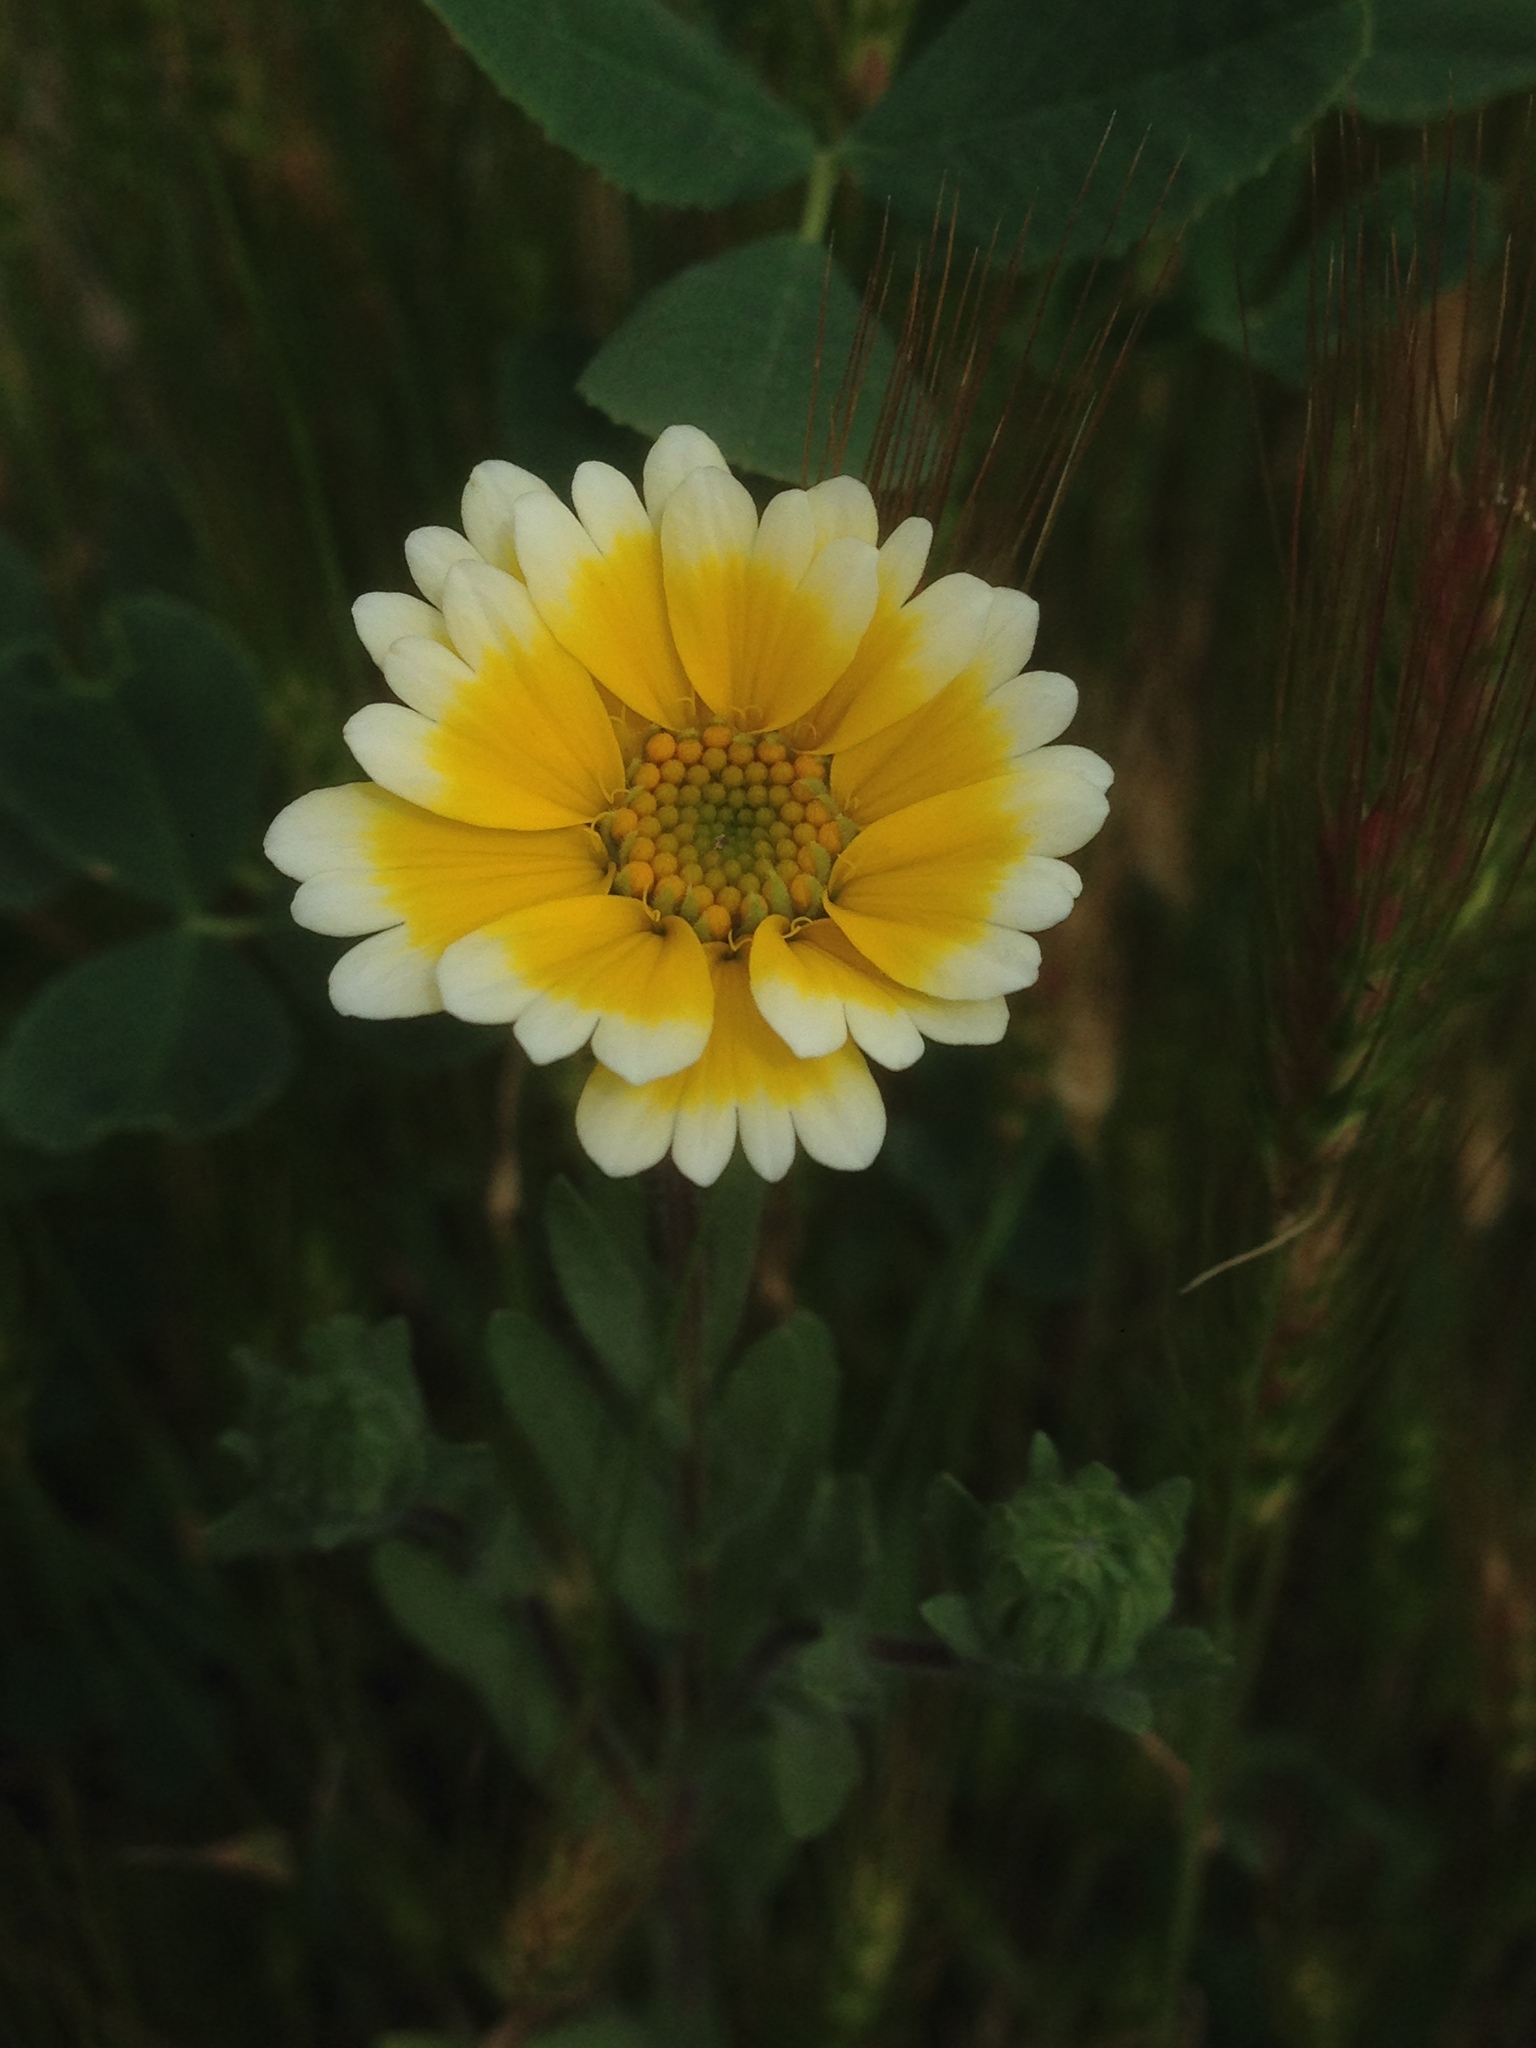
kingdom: Plantae
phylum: Tracheophyta
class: Magnoliopsida
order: Asterales
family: Asteraceae
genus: Layia
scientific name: Layia platyglossa
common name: Tidy-tips
